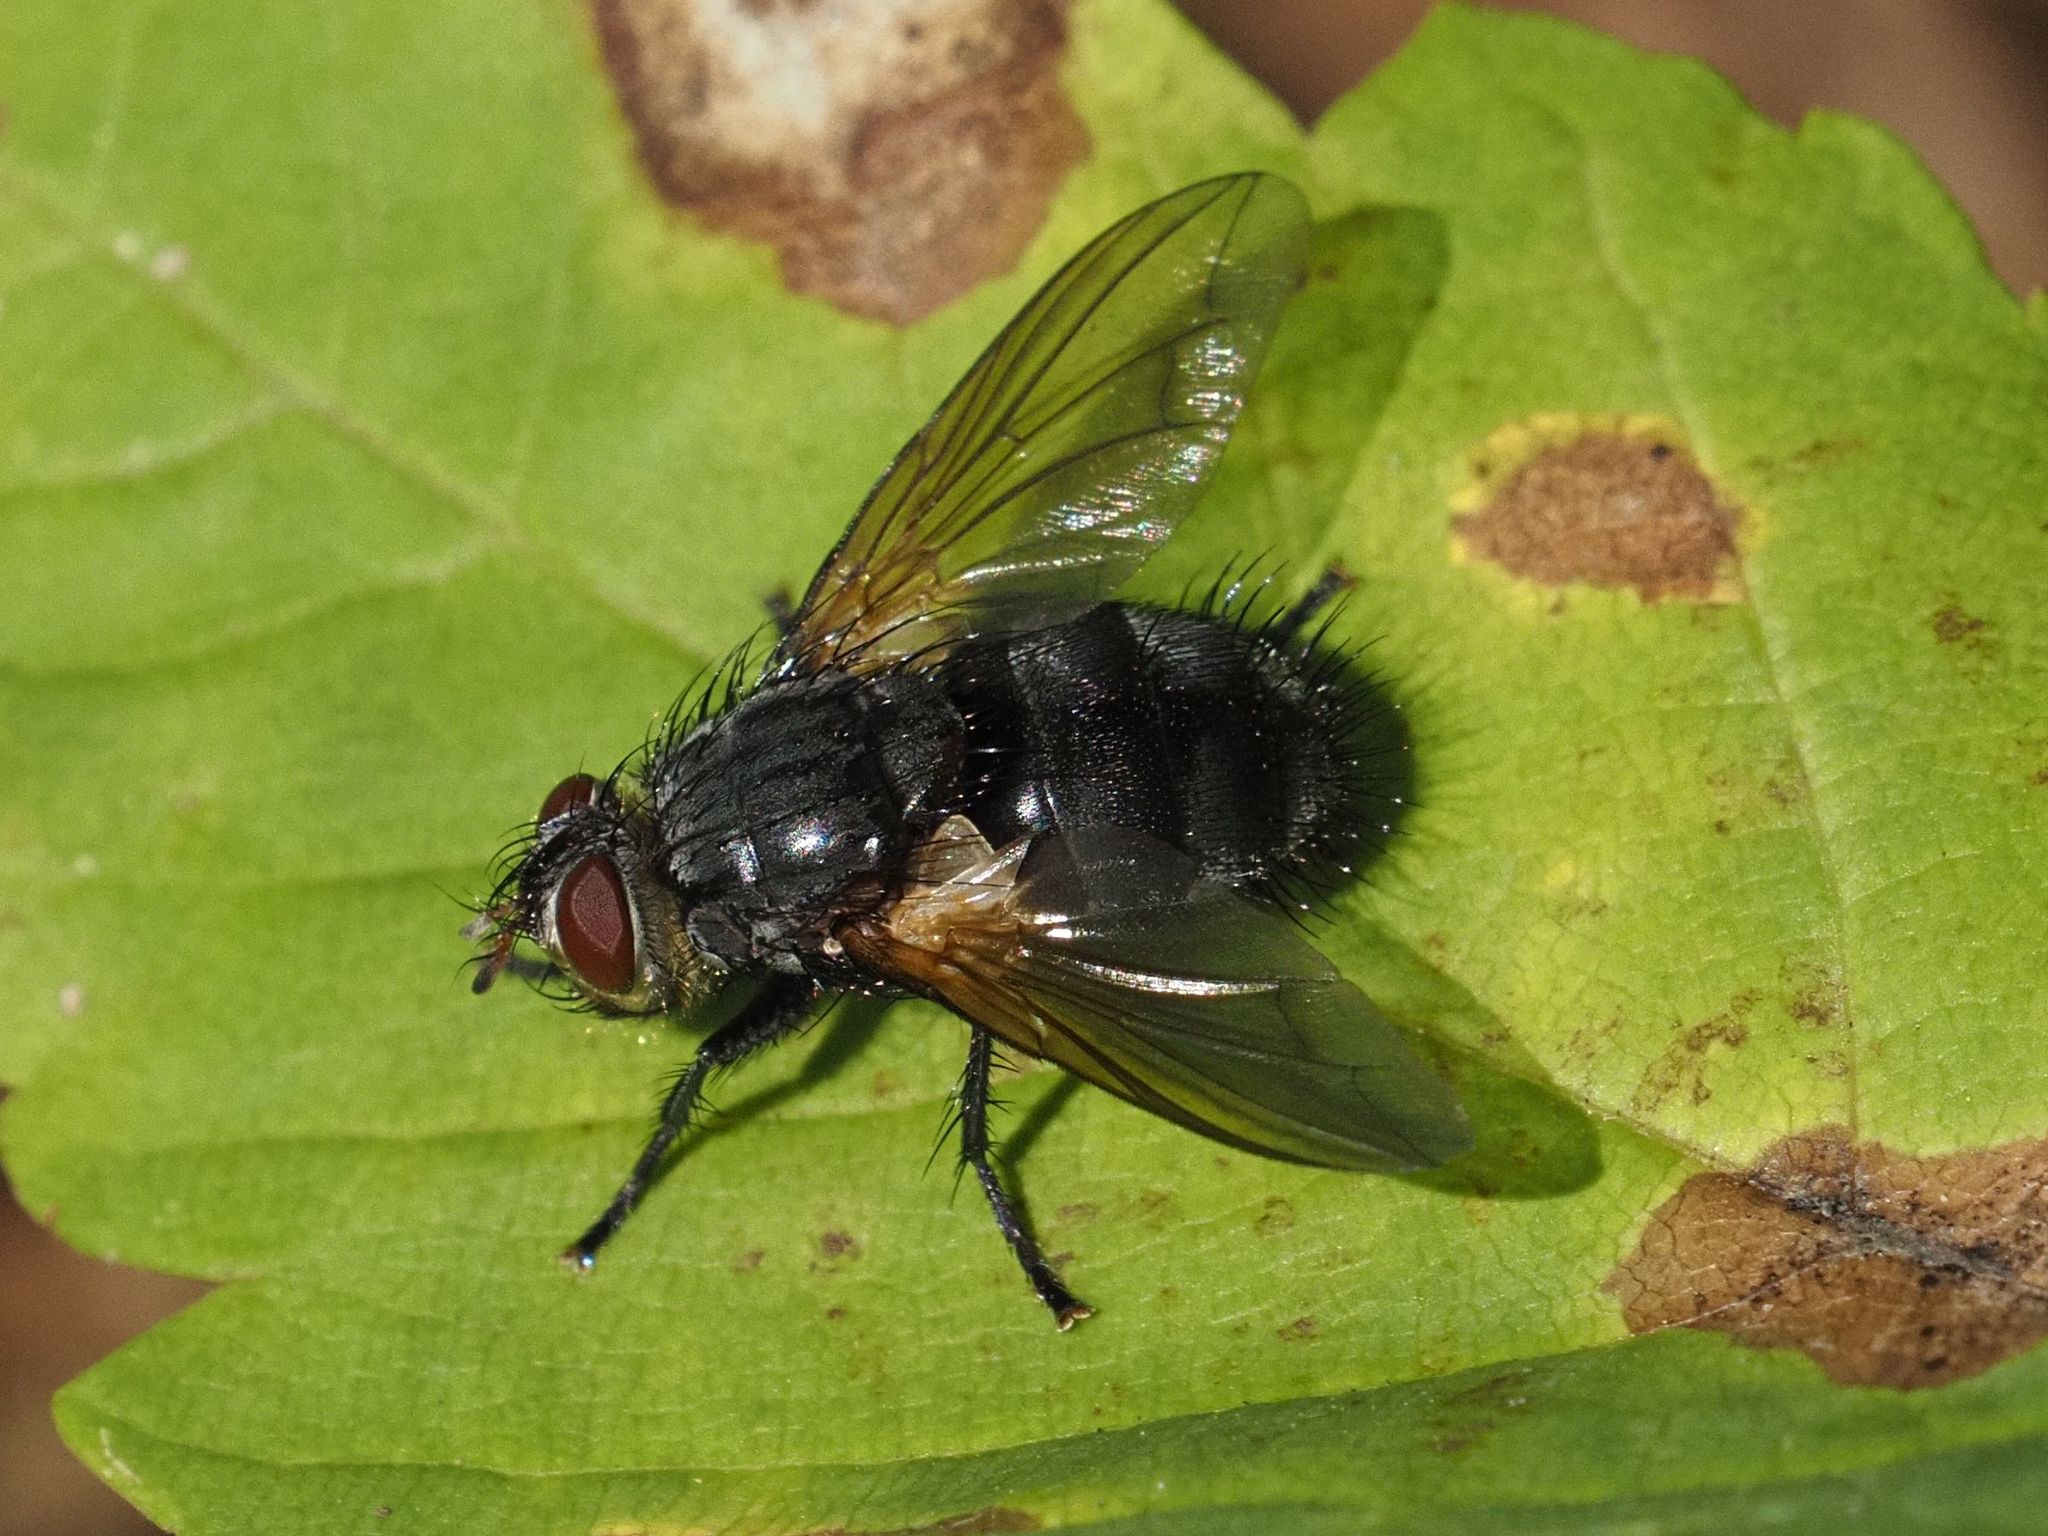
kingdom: Animalia
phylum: Arthropoda
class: Insecta
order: Diptera
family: Tachinidae
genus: Nemoraea
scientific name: Nemoraea pellucida
